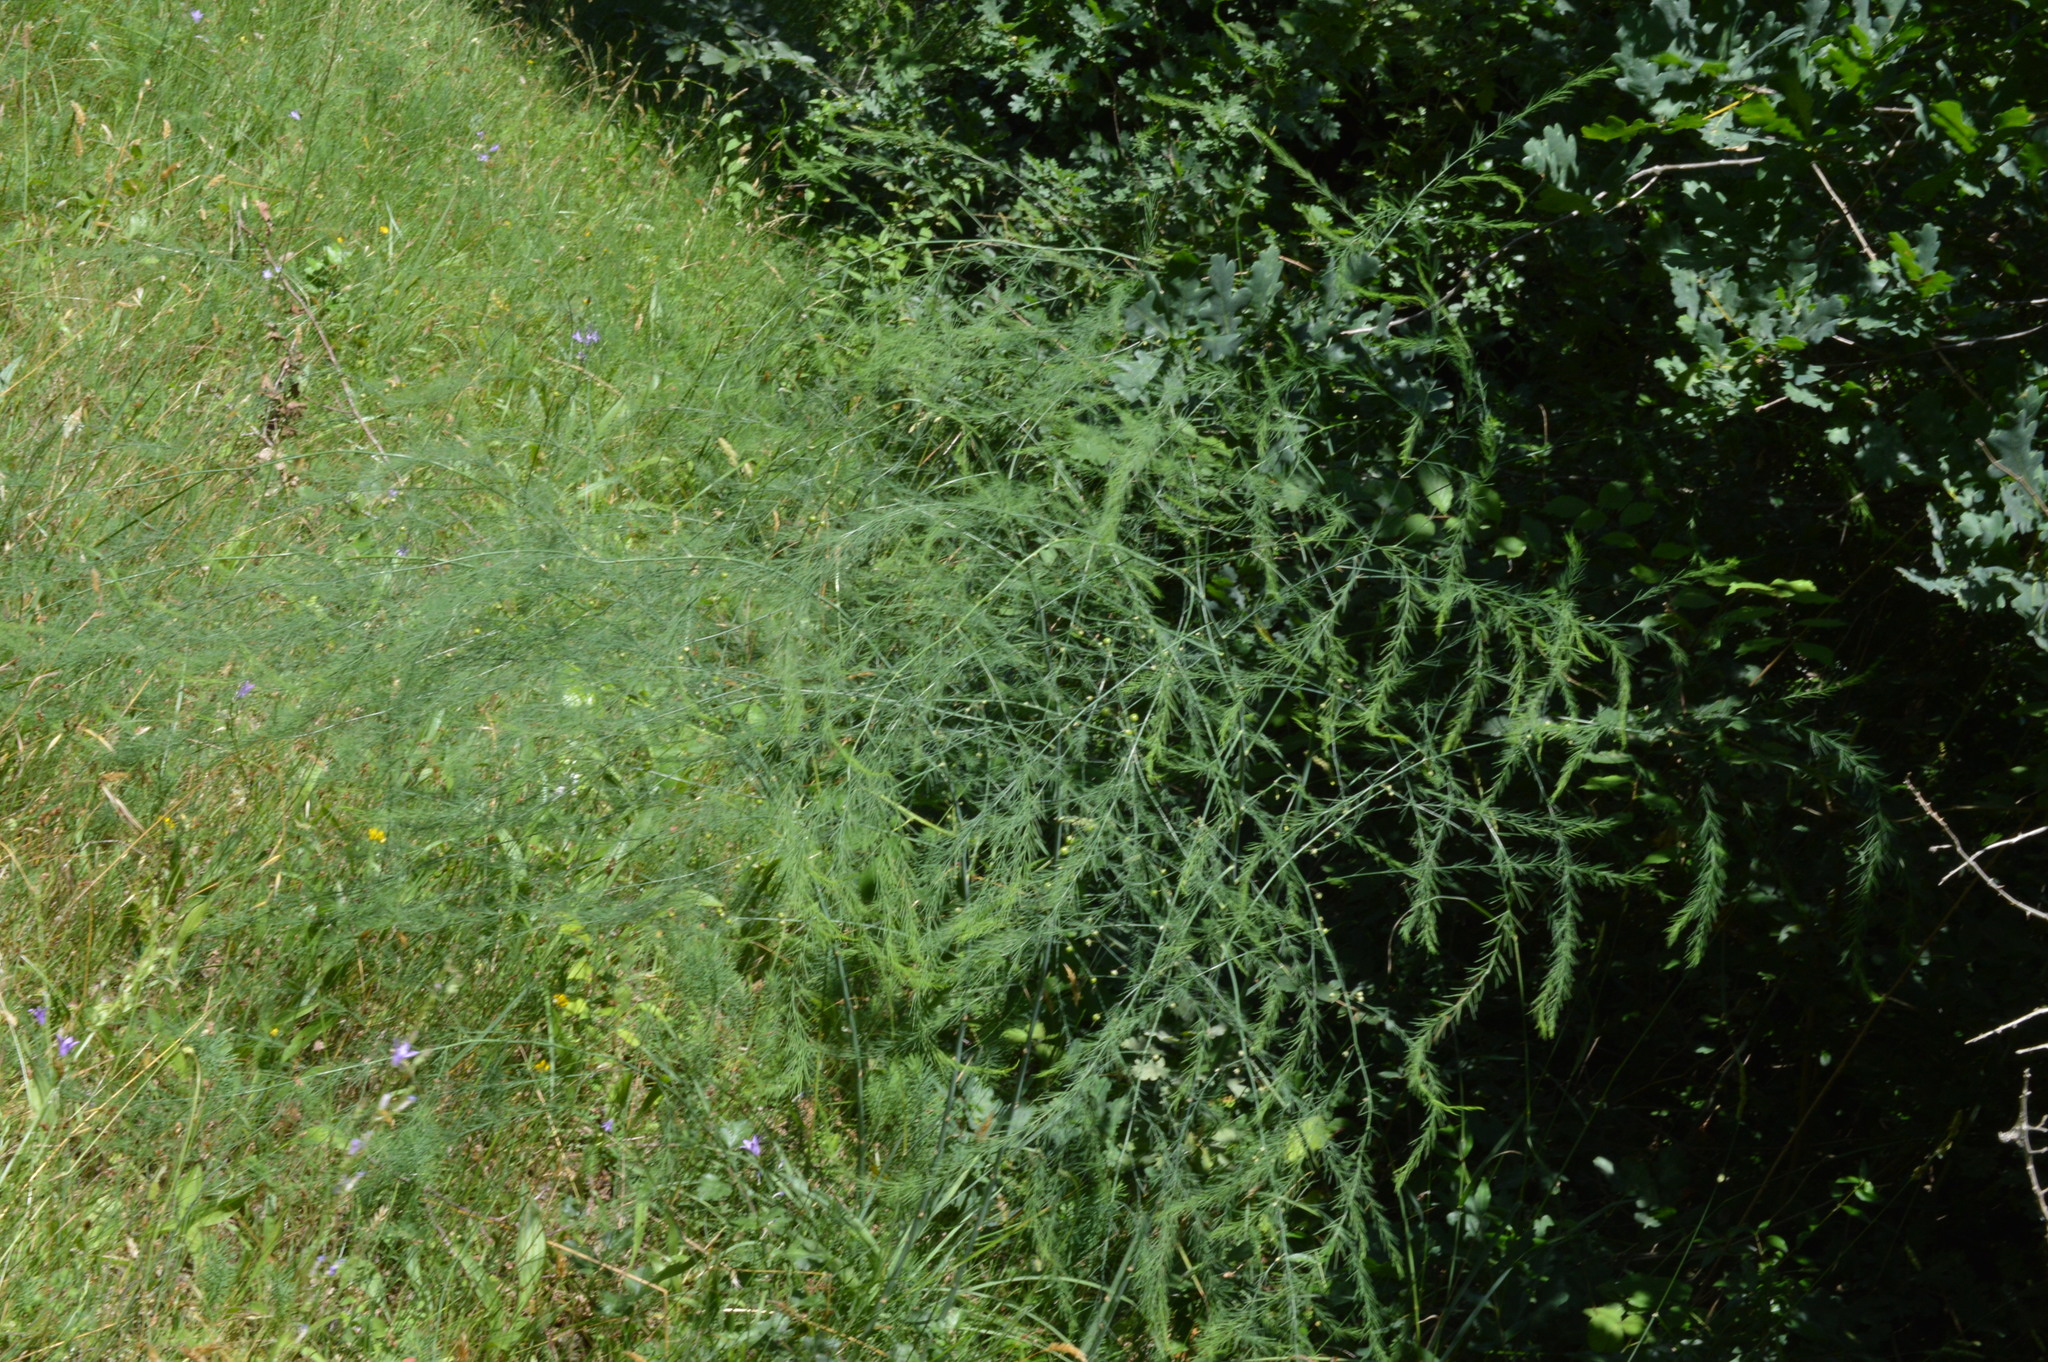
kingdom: Plantae
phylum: Tracheophyta
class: Liliopsida
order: Asparagales
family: Asparagaceae
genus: Asparagus
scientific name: Asparagus officinalis
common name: Garden asparagus
